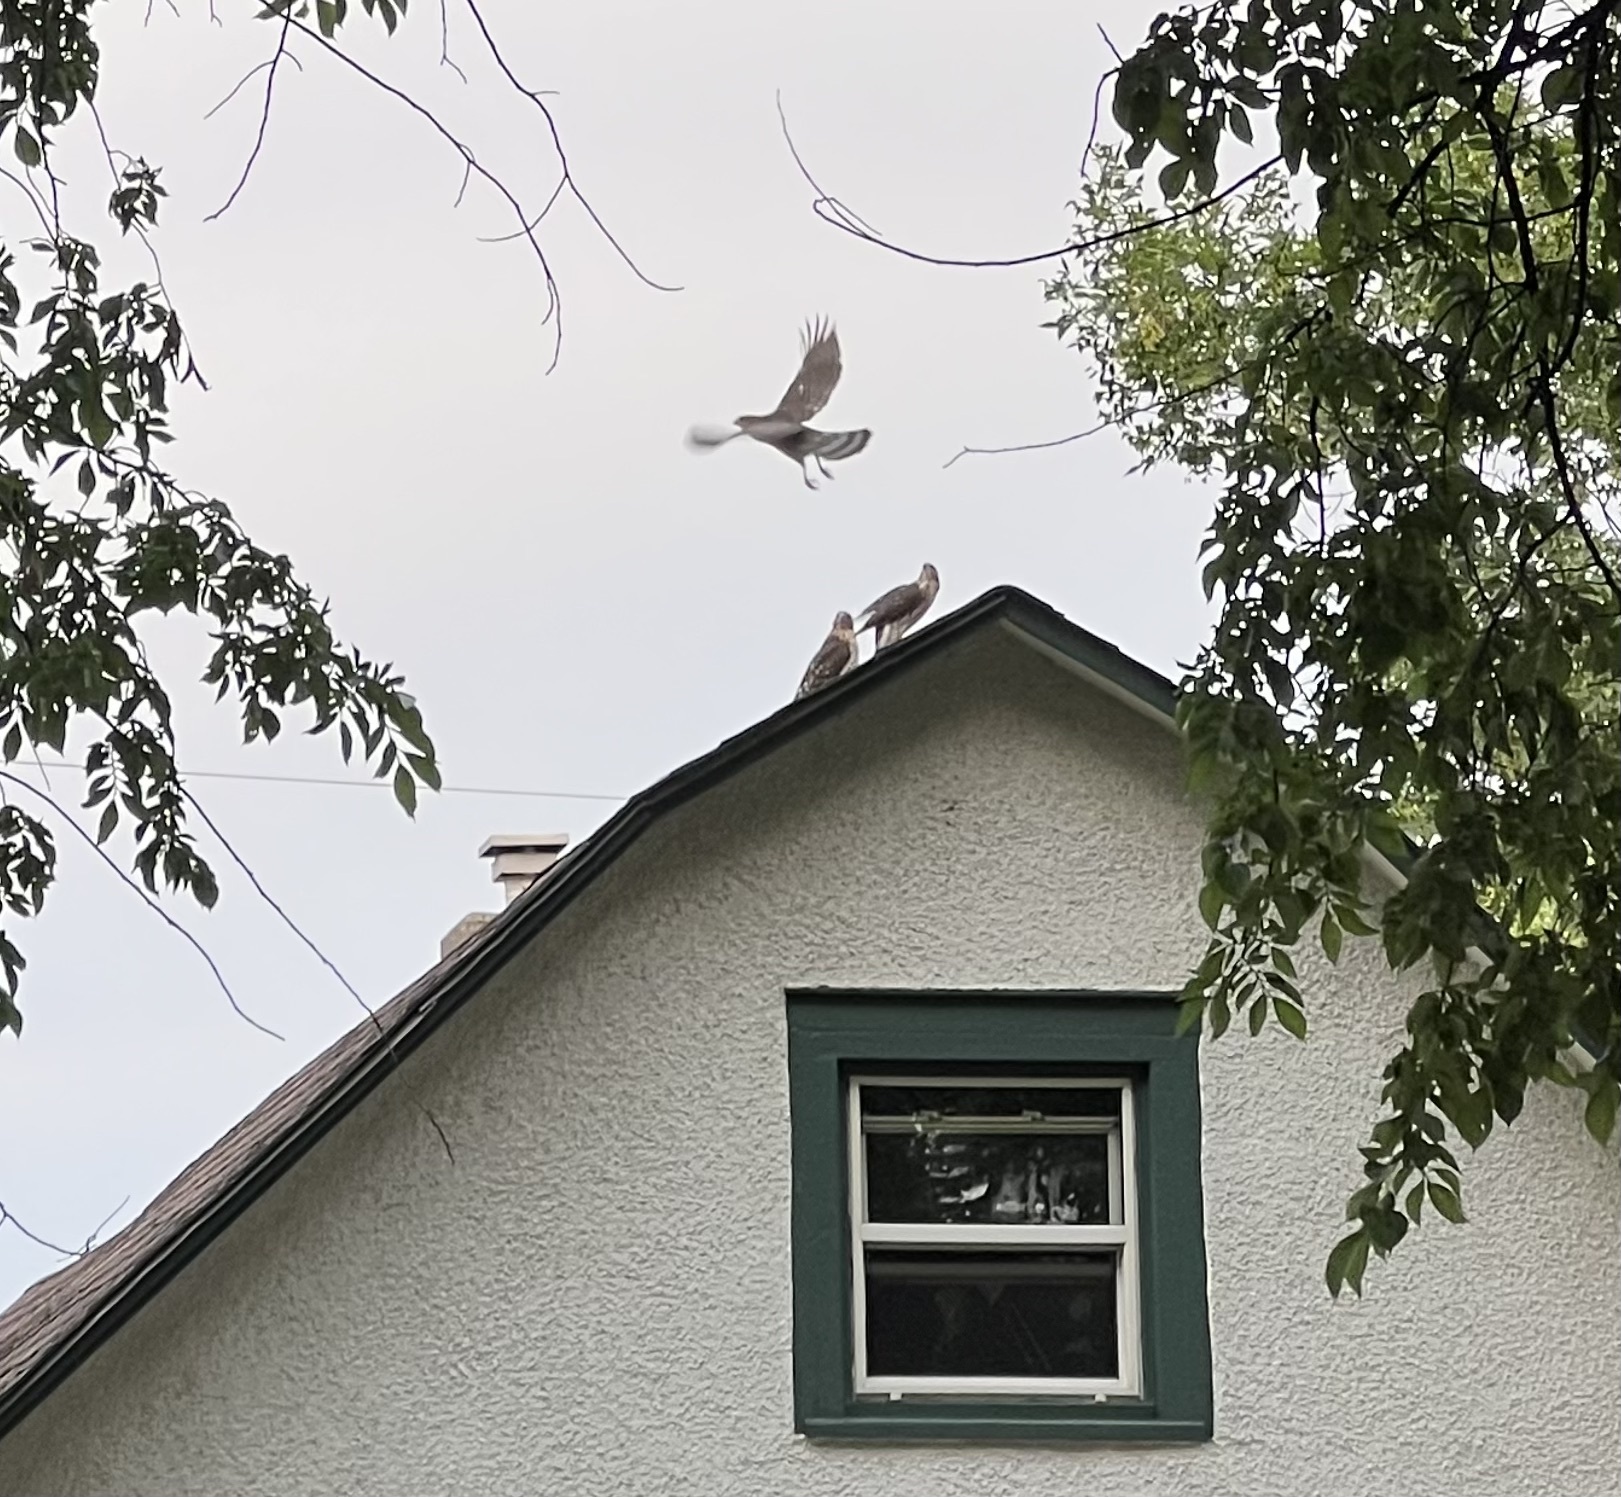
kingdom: Animalia
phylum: Chordata
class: Aves
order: Accipitriformes
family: Accipitridae
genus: Accipiter
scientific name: Accipiter cooperii
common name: Cooper's hawk
